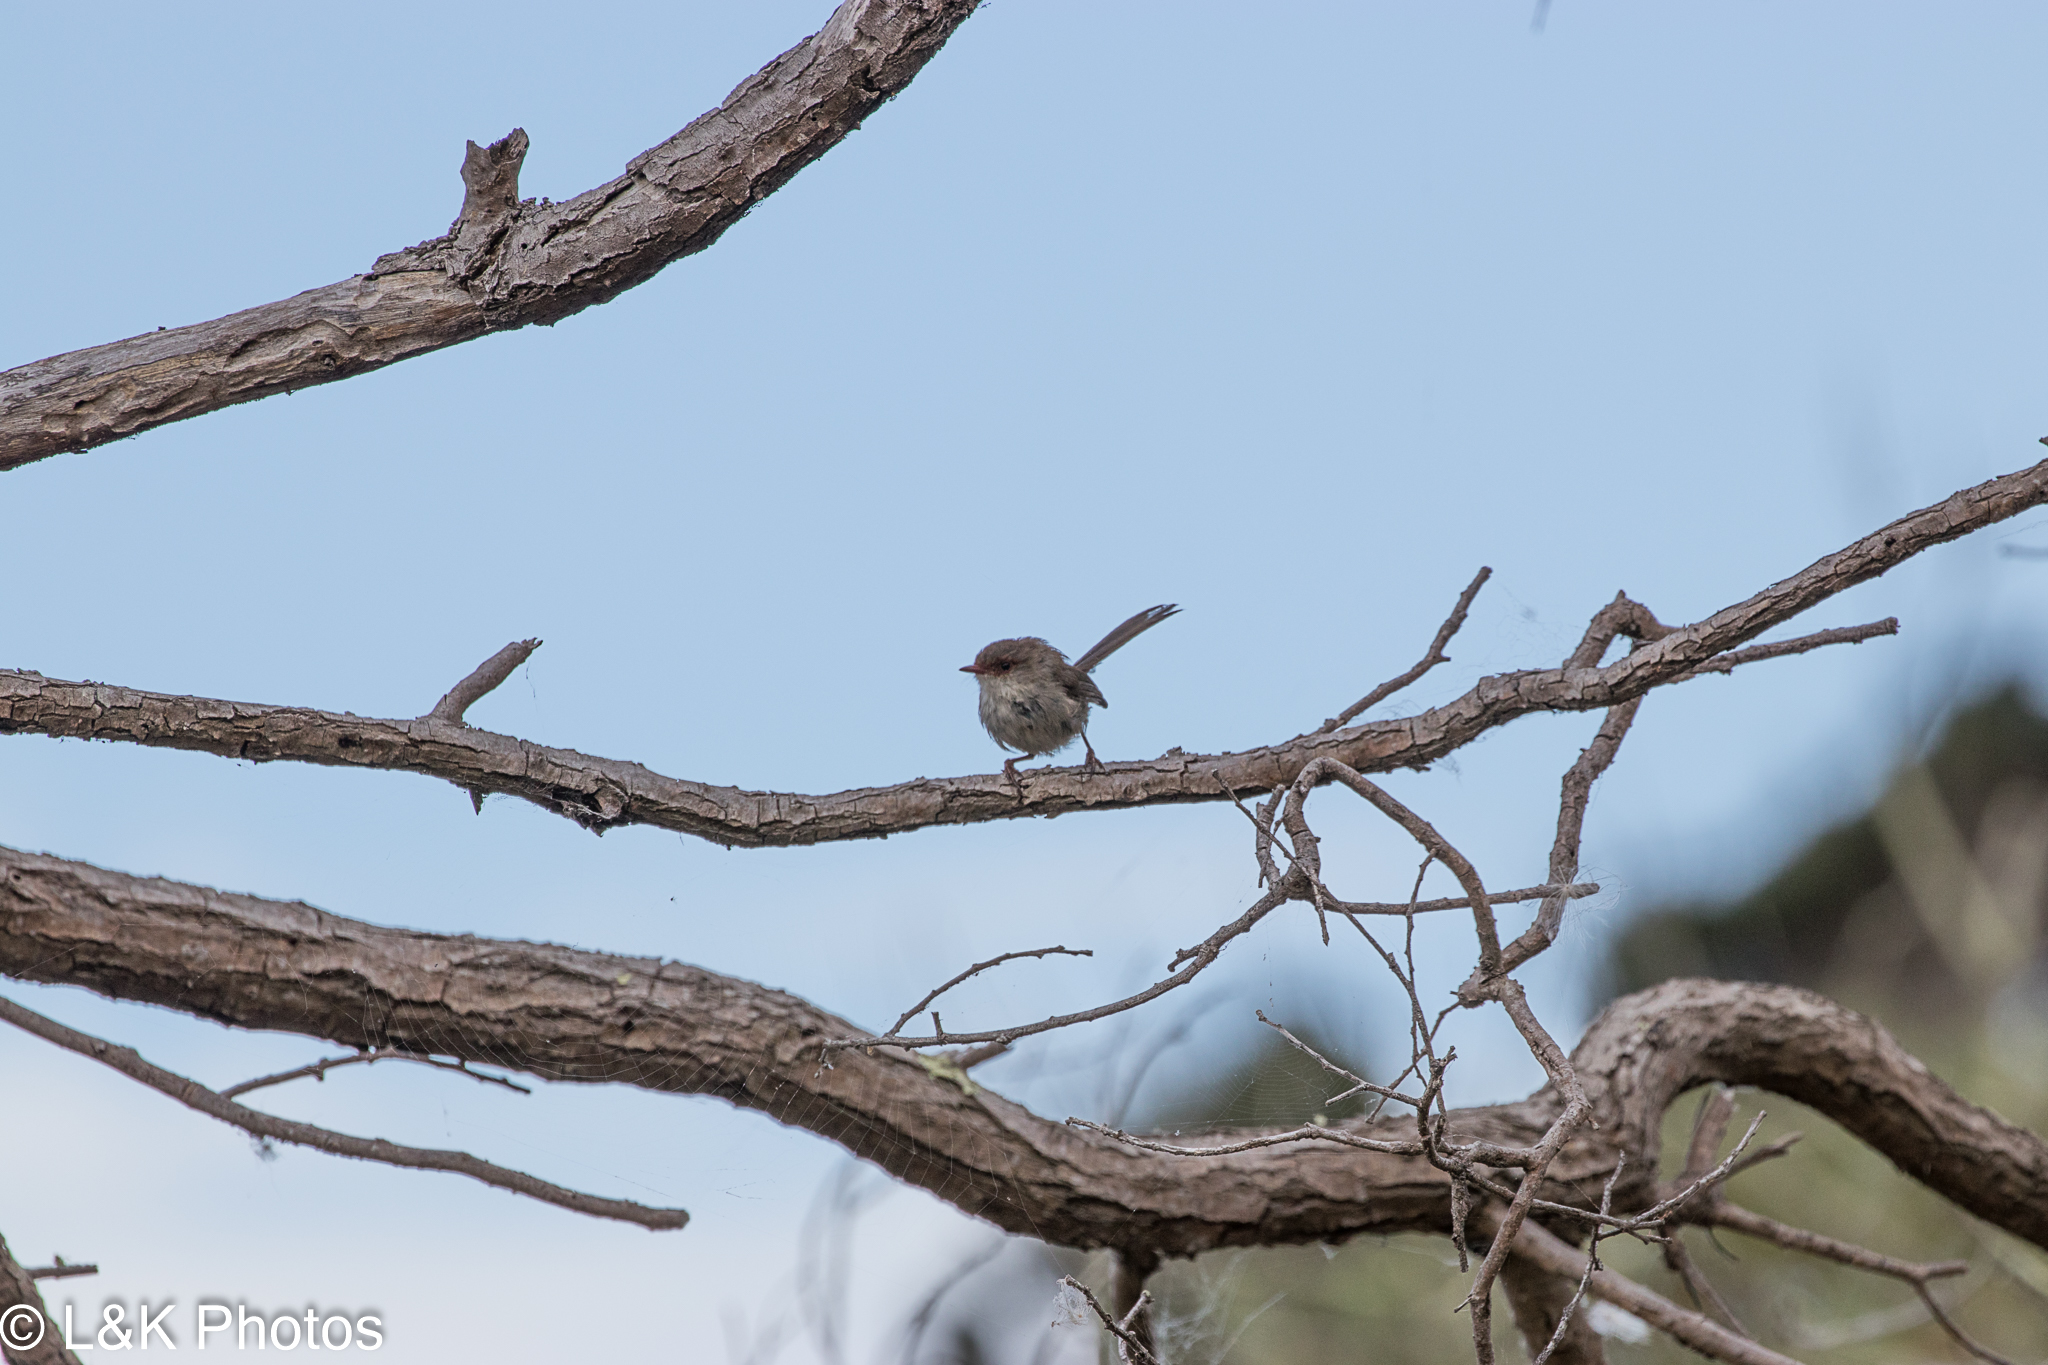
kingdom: Animalia
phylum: Chordata
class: Aves
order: Passeriformes
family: Maluridae
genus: Malurus
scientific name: Malurus cyaneus
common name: Superb fairywren
